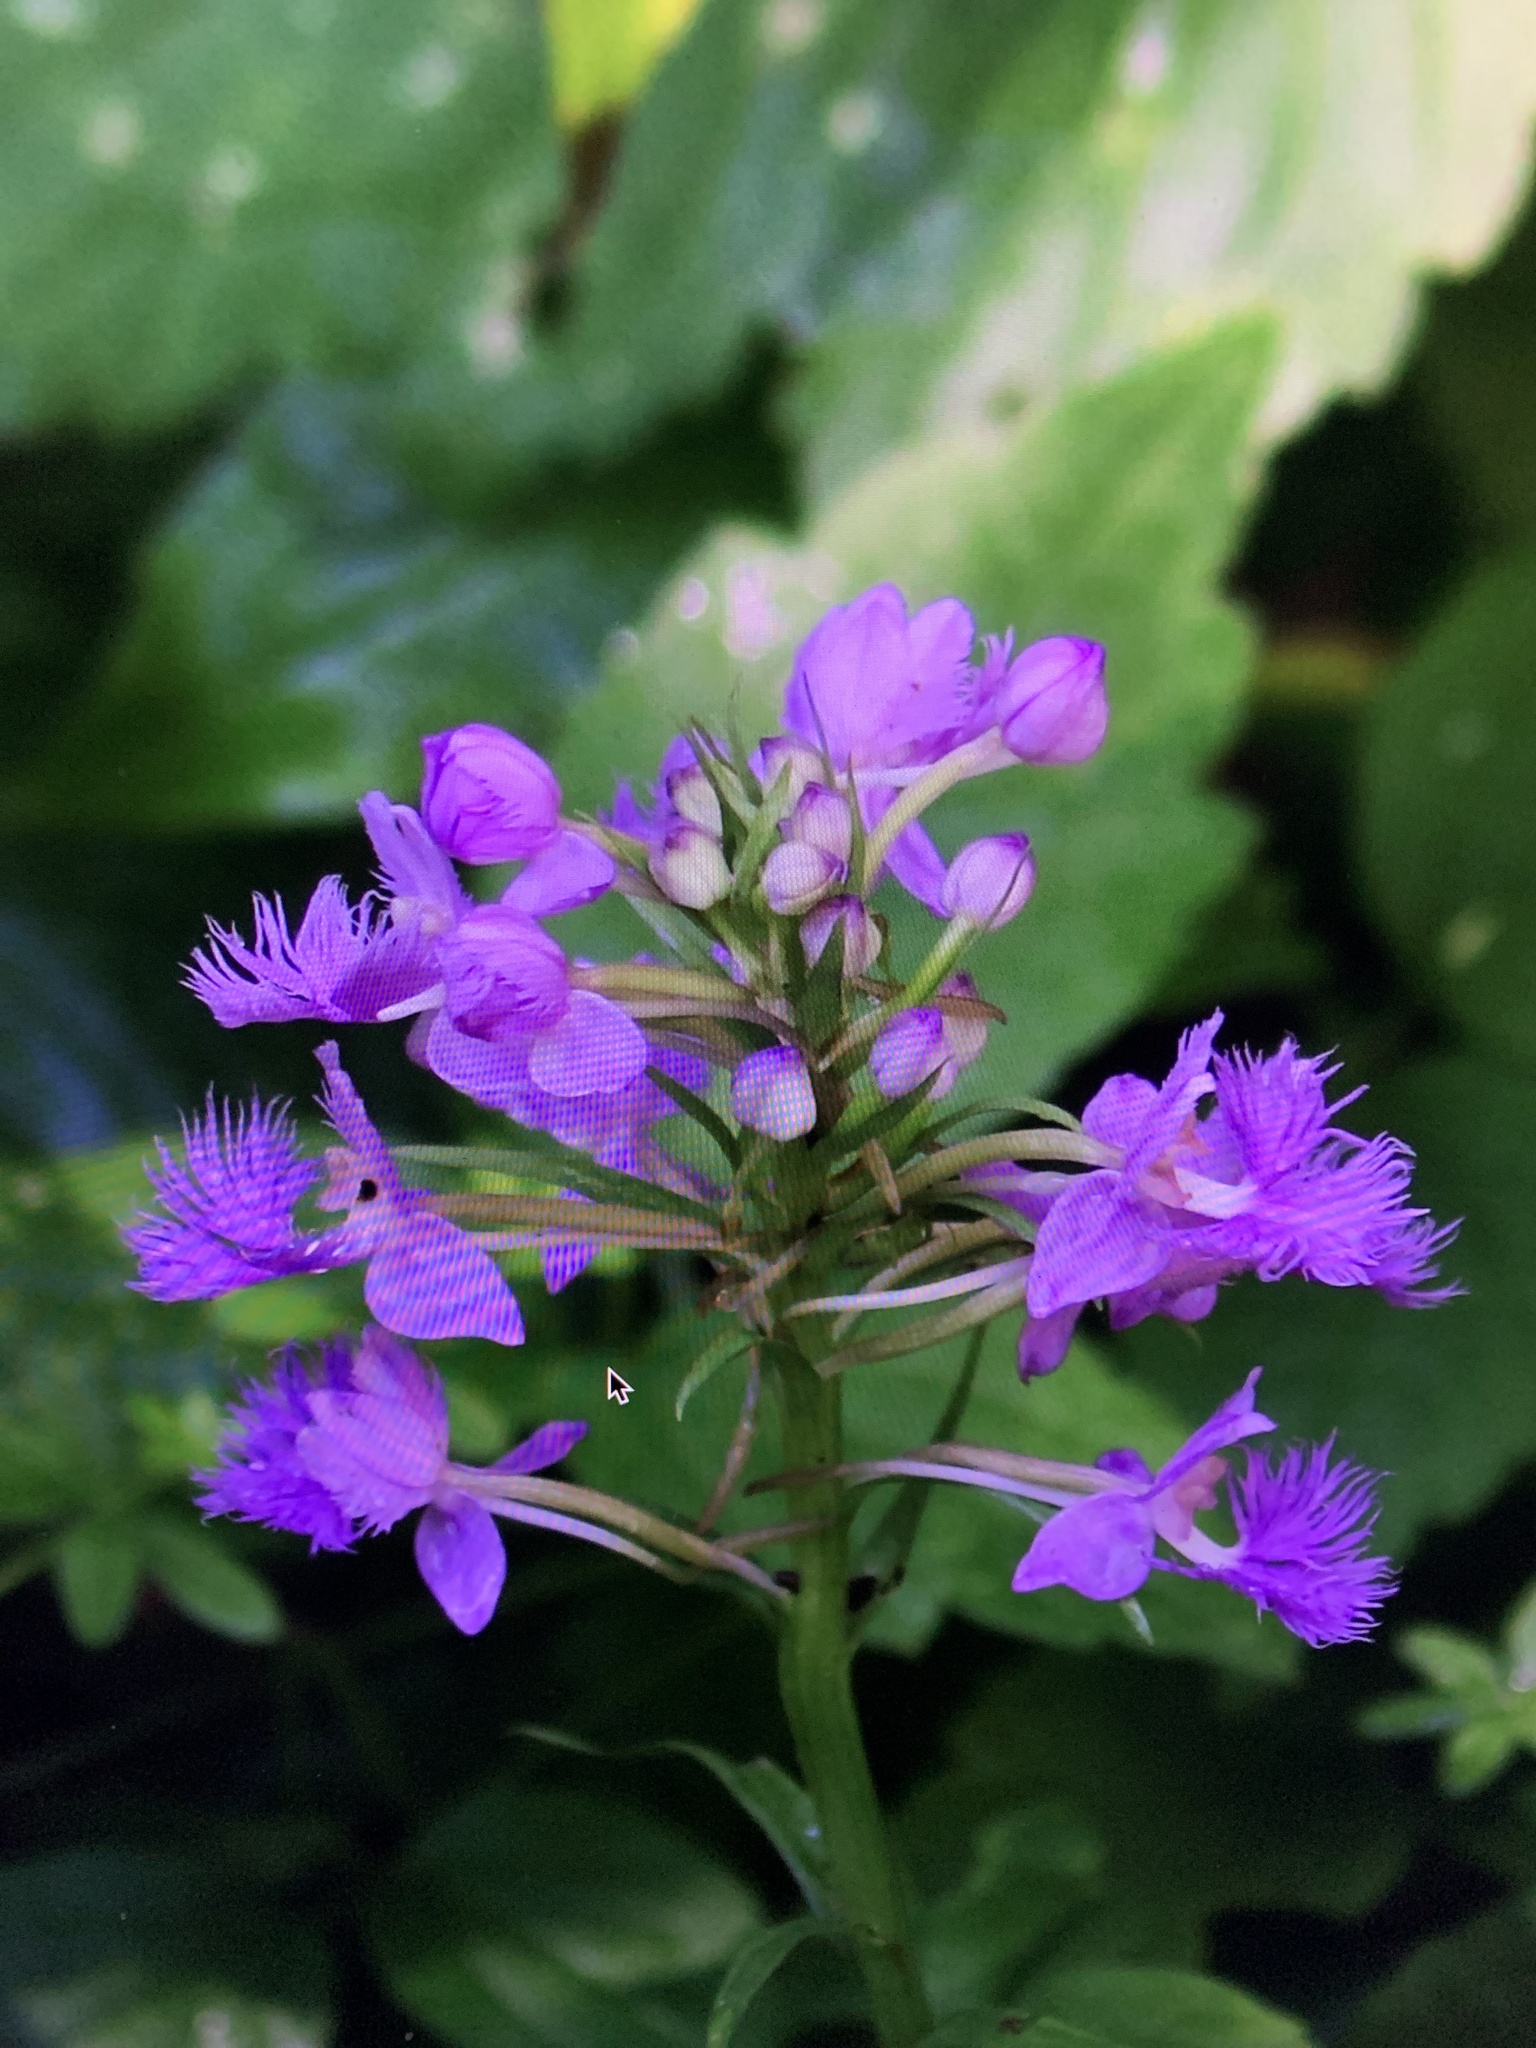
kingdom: Plantae
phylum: Tracheophyta
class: Liliopsida
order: Asparagales
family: Orchidaceae
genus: Platanthera
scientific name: Platanthera grandiflora
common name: Greater purple fringed orchid
